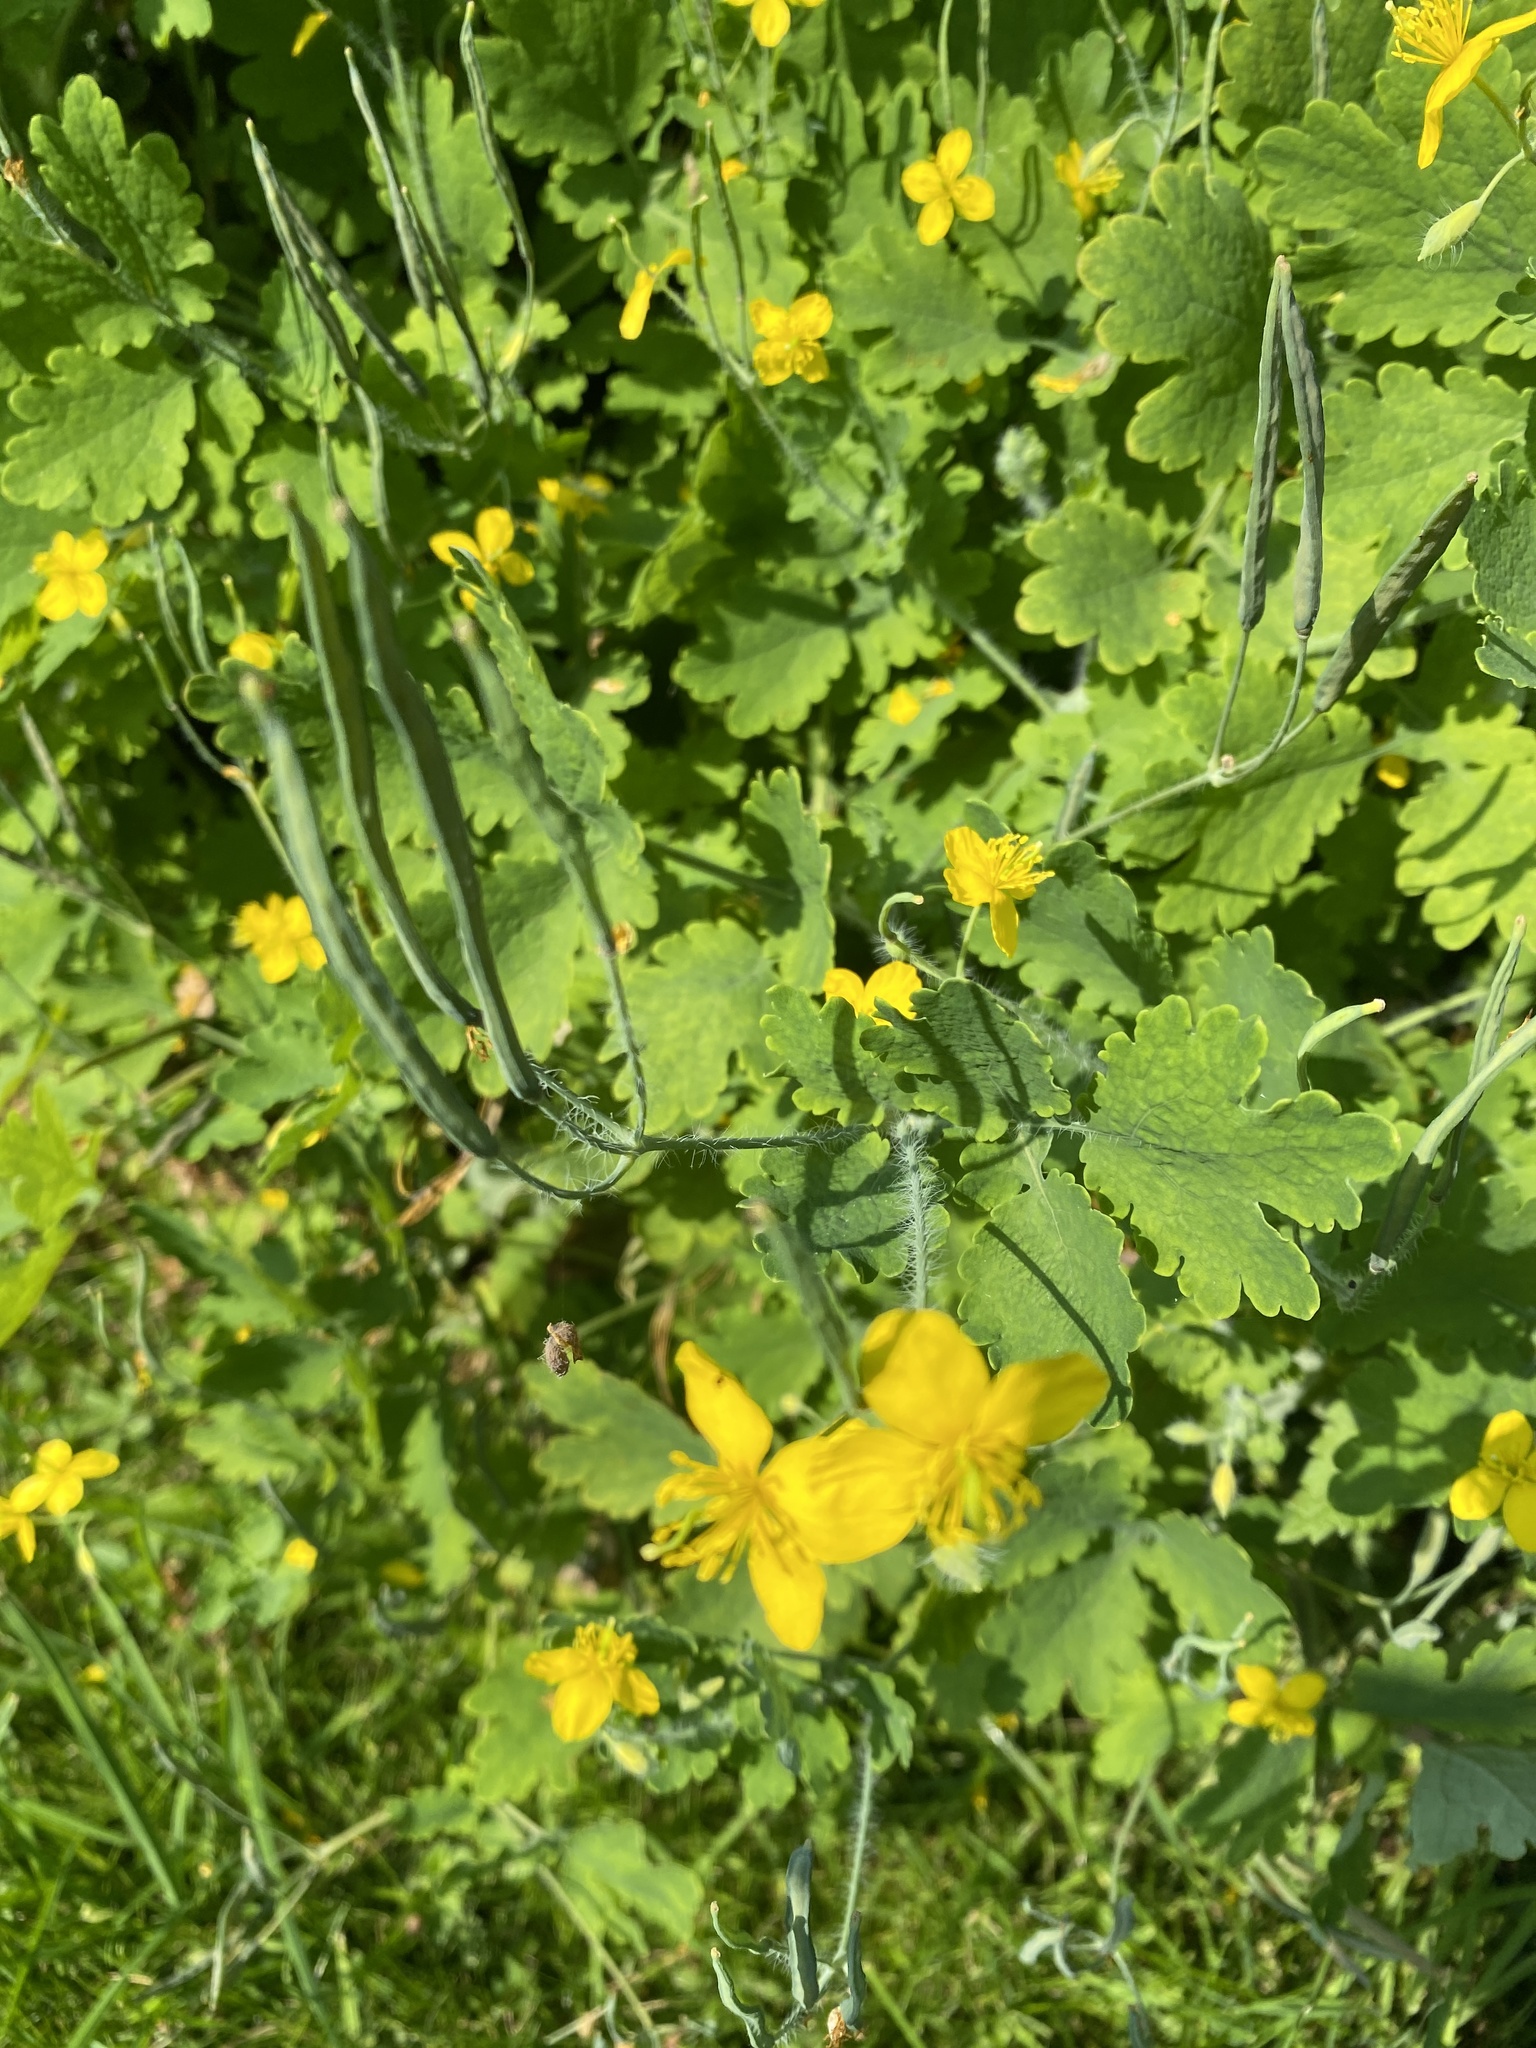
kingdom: Plantae
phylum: Tracheophyta
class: Magnoliopsida
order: Ranunculales
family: Papaveraceae
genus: Chelidonium
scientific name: Chelidonium majus
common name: Greater celandine
